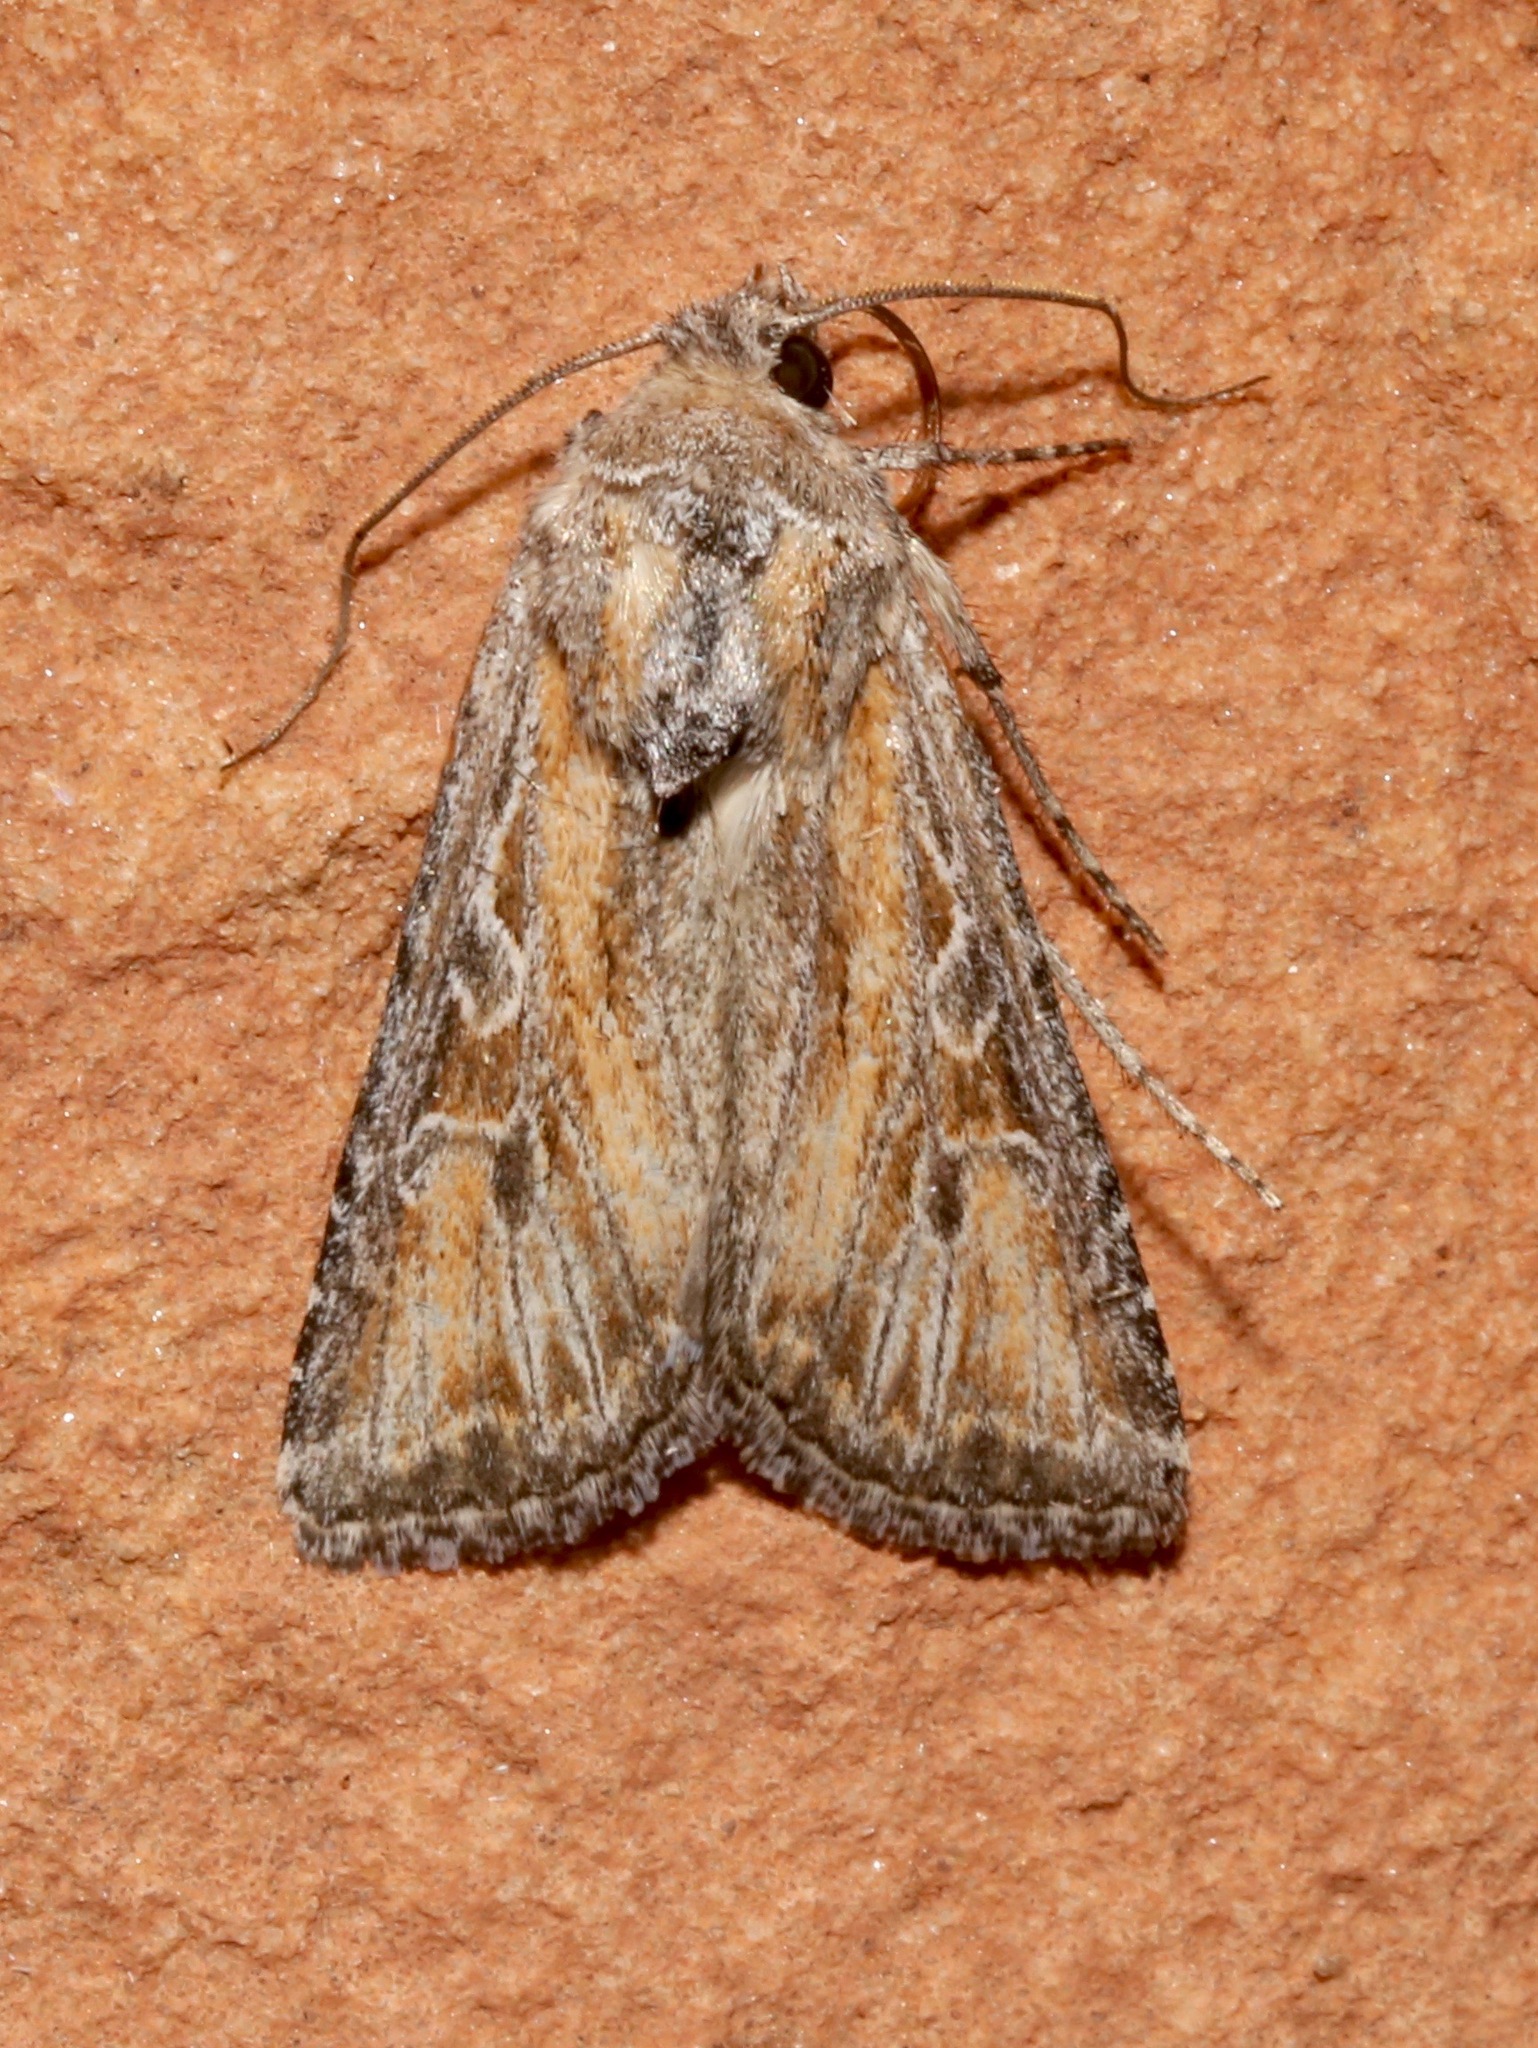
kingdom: Animalia
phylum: Arthropoda
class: Insecta
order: Lepidoptera
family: Noctuidae
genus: Euxoa
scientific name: Euxoa pluralis
